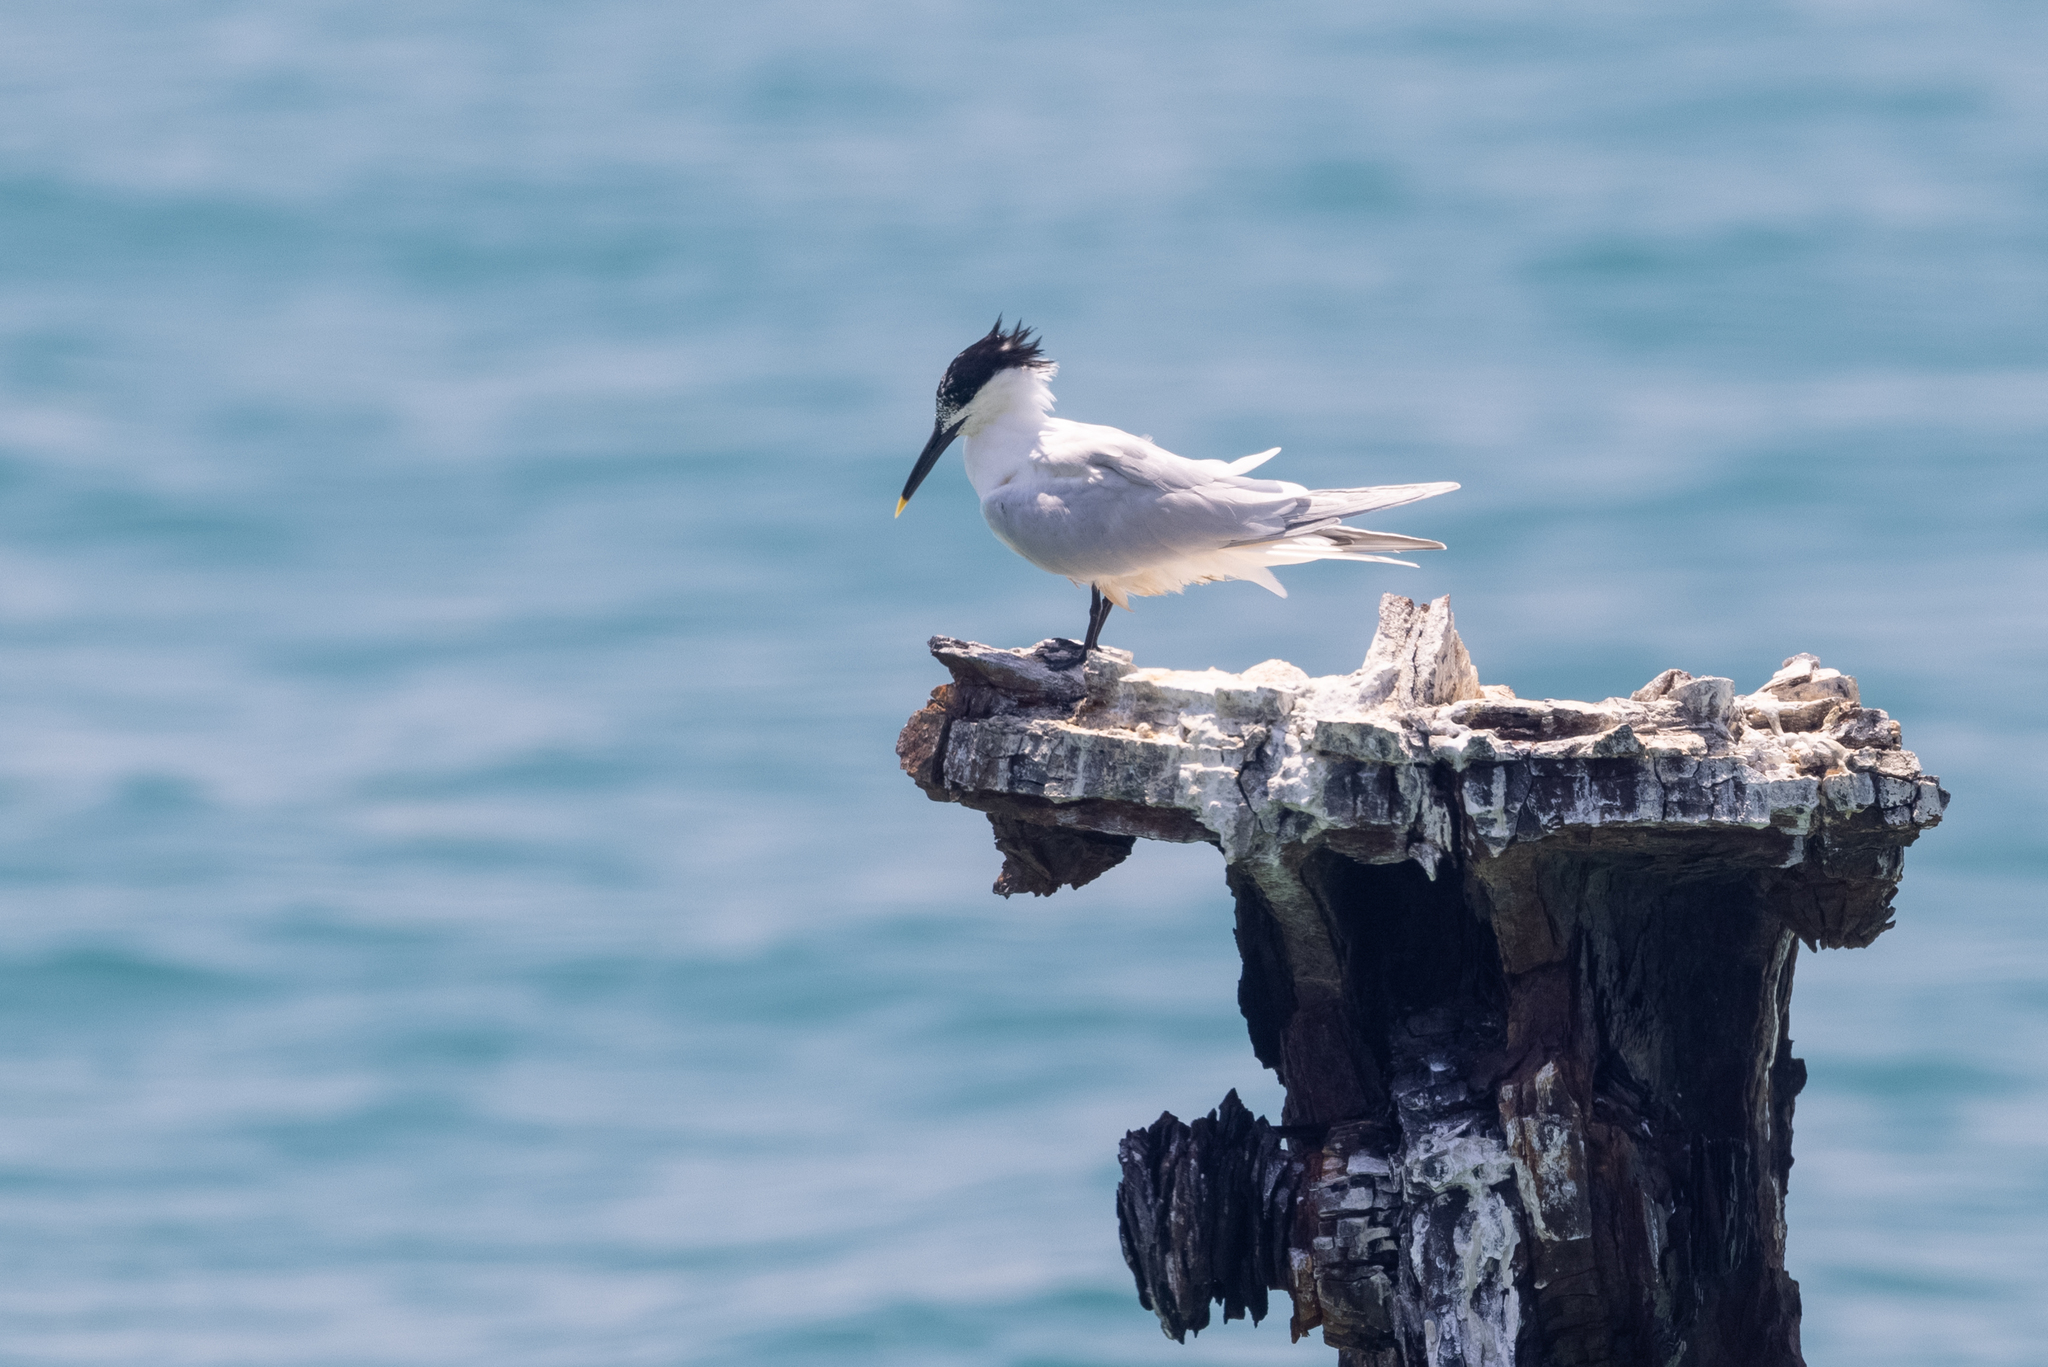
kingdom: Animalia
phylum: Chordata
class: Aves
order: Charadriiformes
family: Laridae
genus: Thalasseus
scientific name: Thalasseus sandvicensis
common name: Sandwich tern
